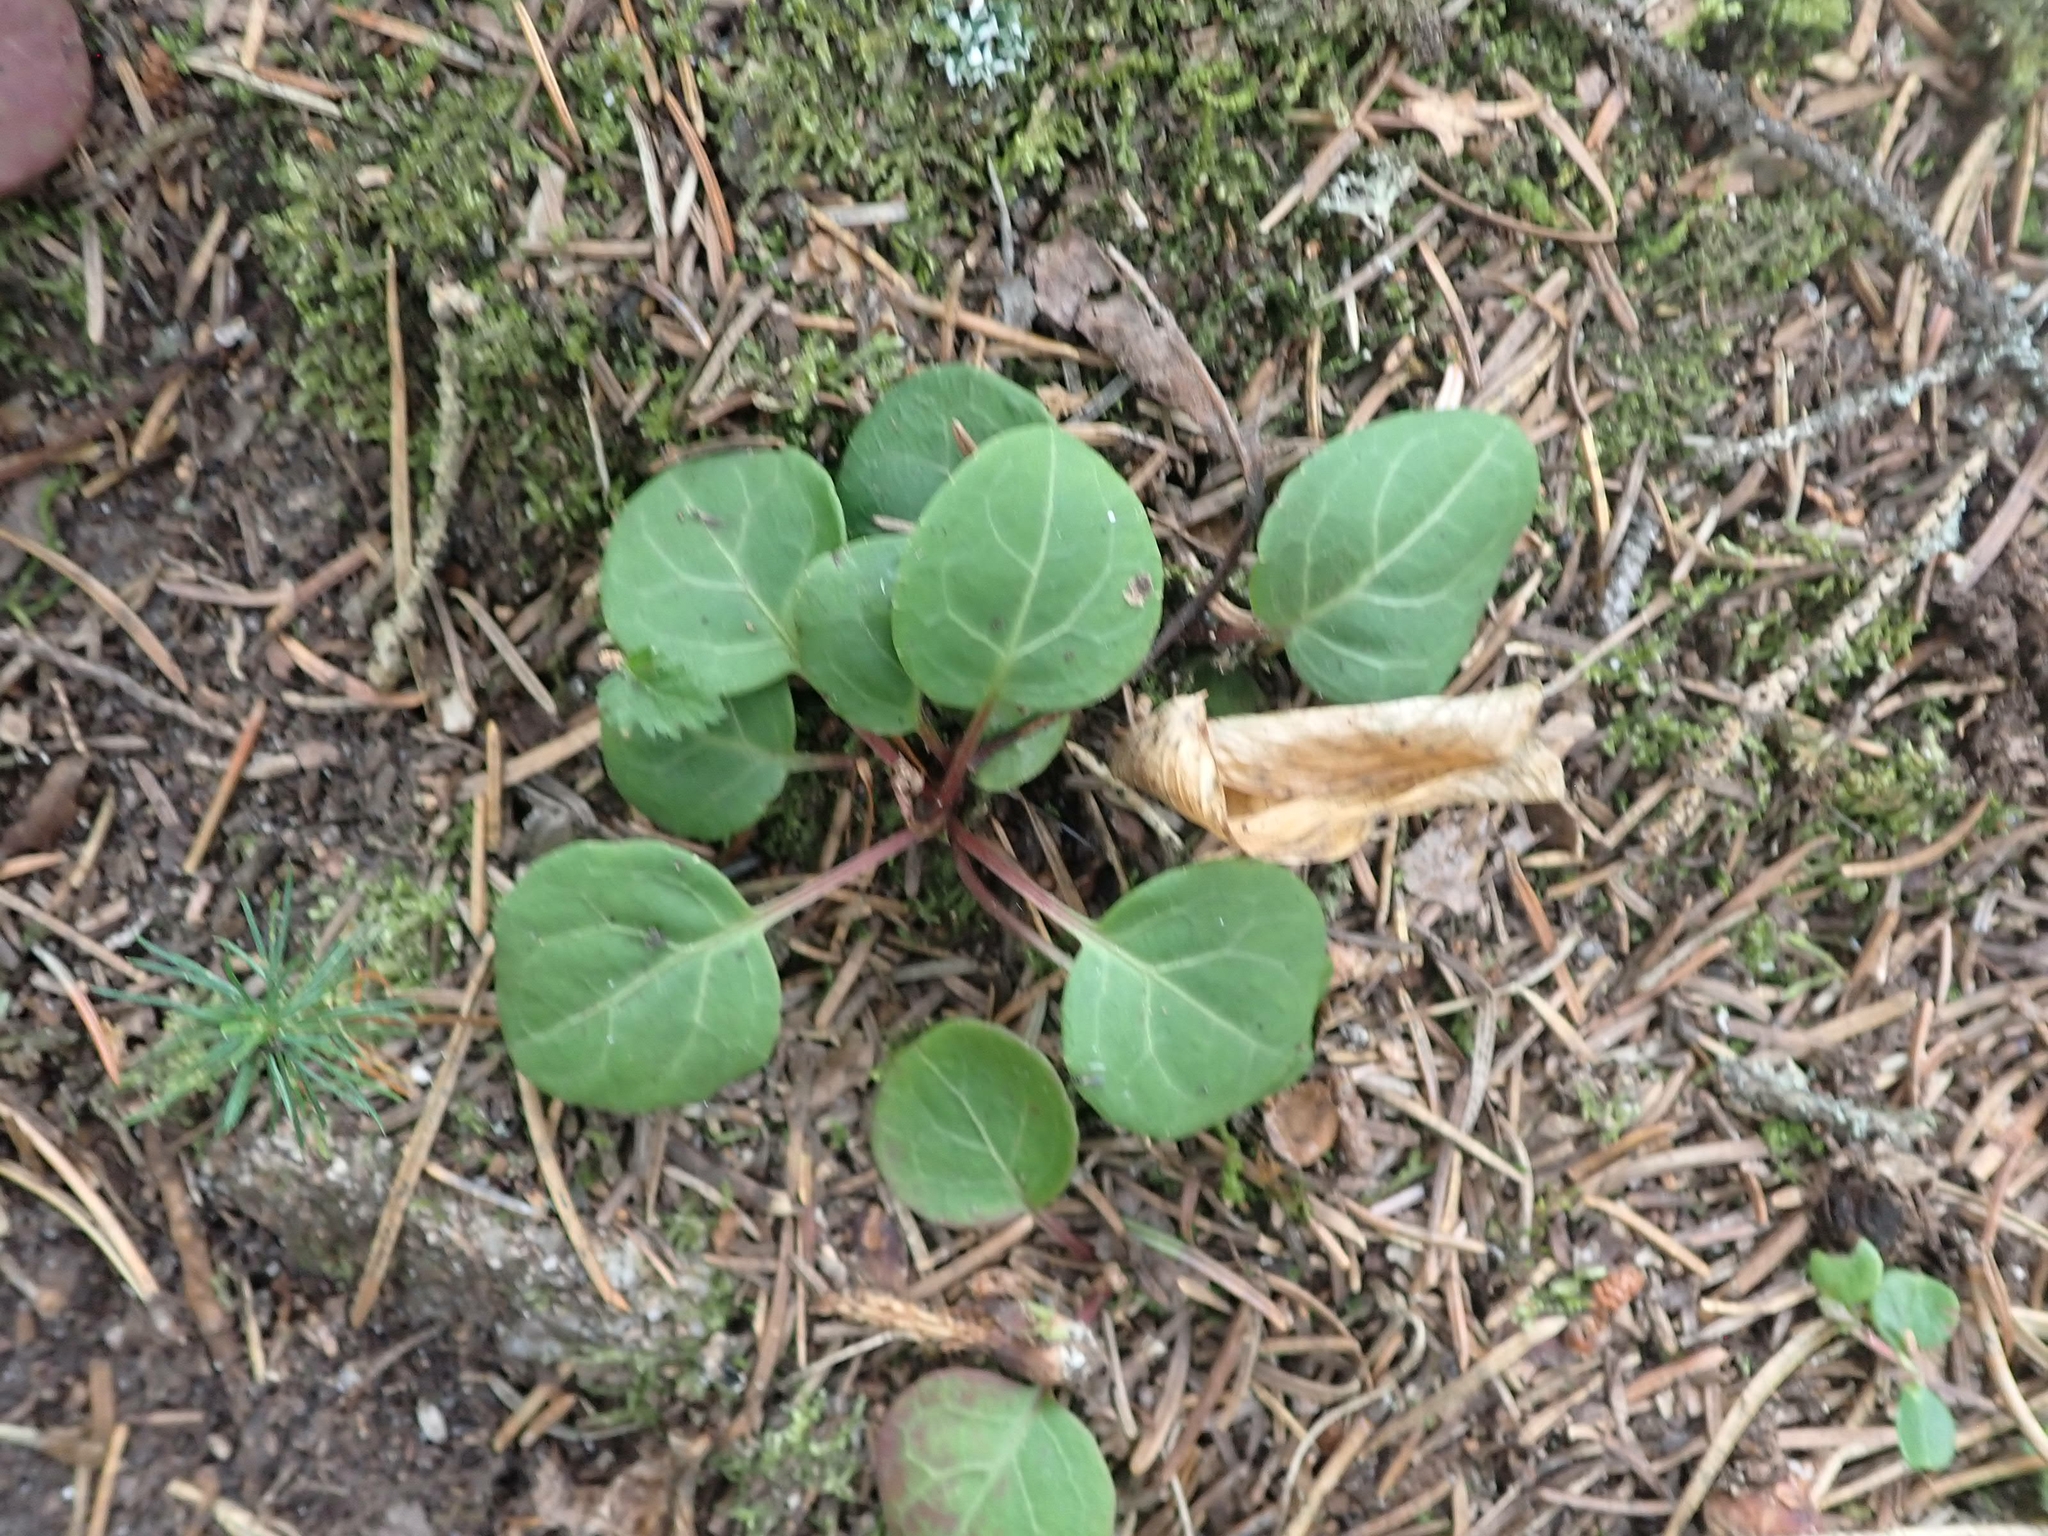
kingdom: Plantae
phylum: Tracheophyta
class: Magnoliopsida
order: Ericales
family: Ericaceae
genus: Pyrola
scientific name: Pyrola chlorantha
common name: Green wintergreen
